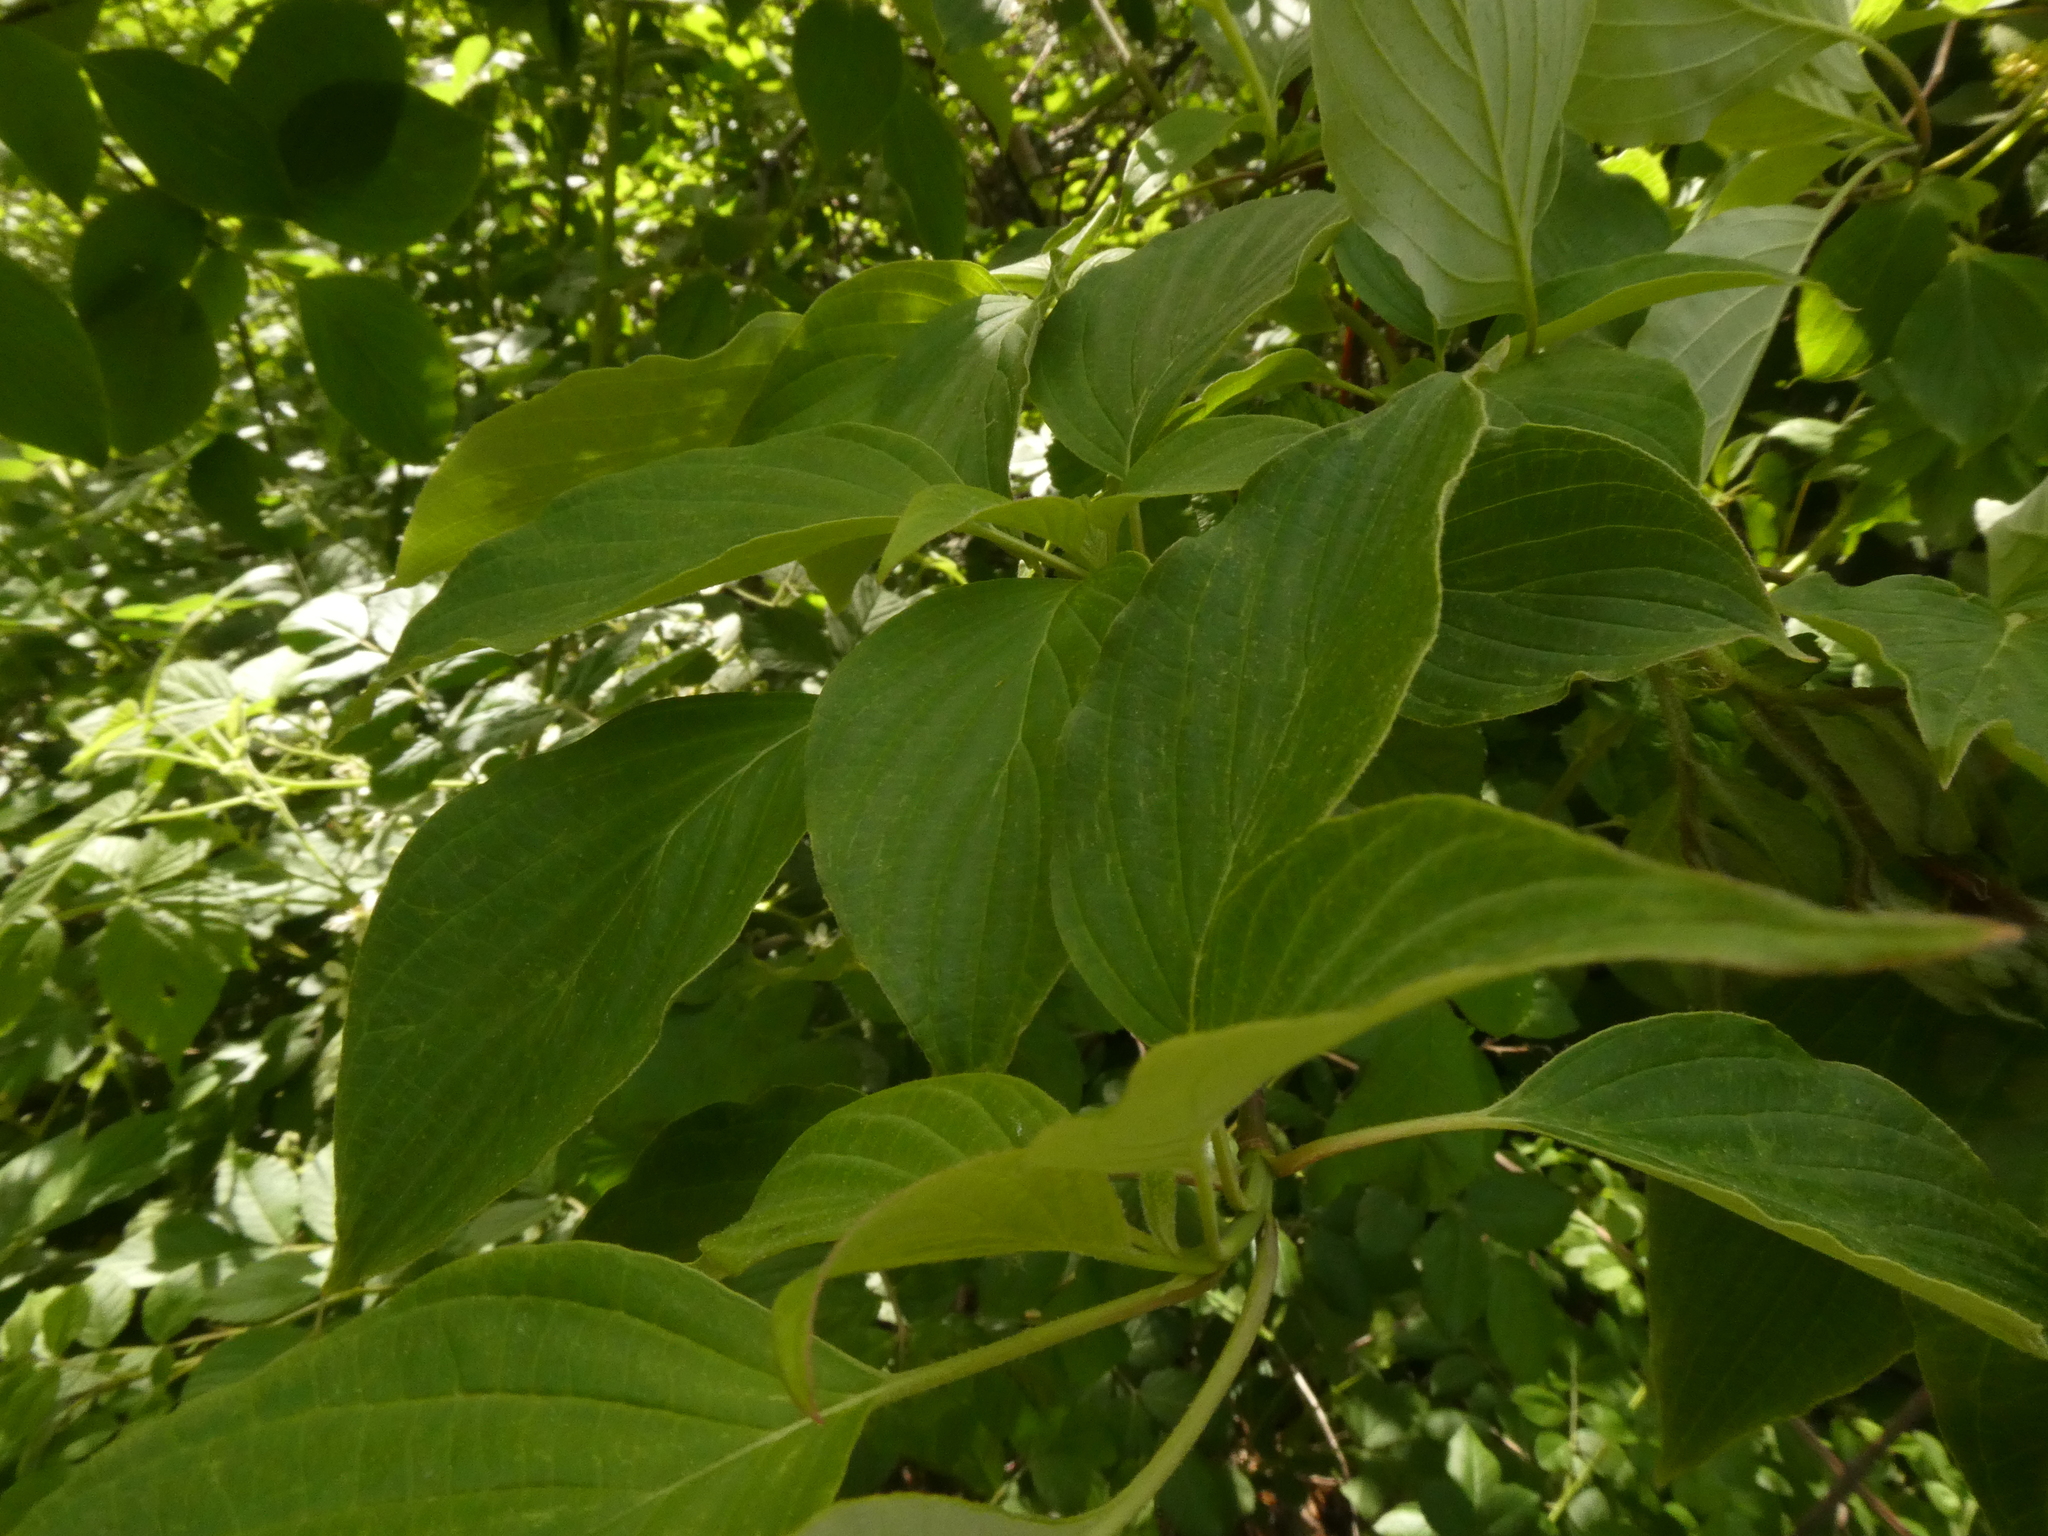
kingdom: Plantae
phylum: Tracheophyta
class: Magnoliopsida
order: Cornales
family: Cornaceae
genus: Cornus
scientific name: Cornus alternifolia
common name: Pagoda dogwood
